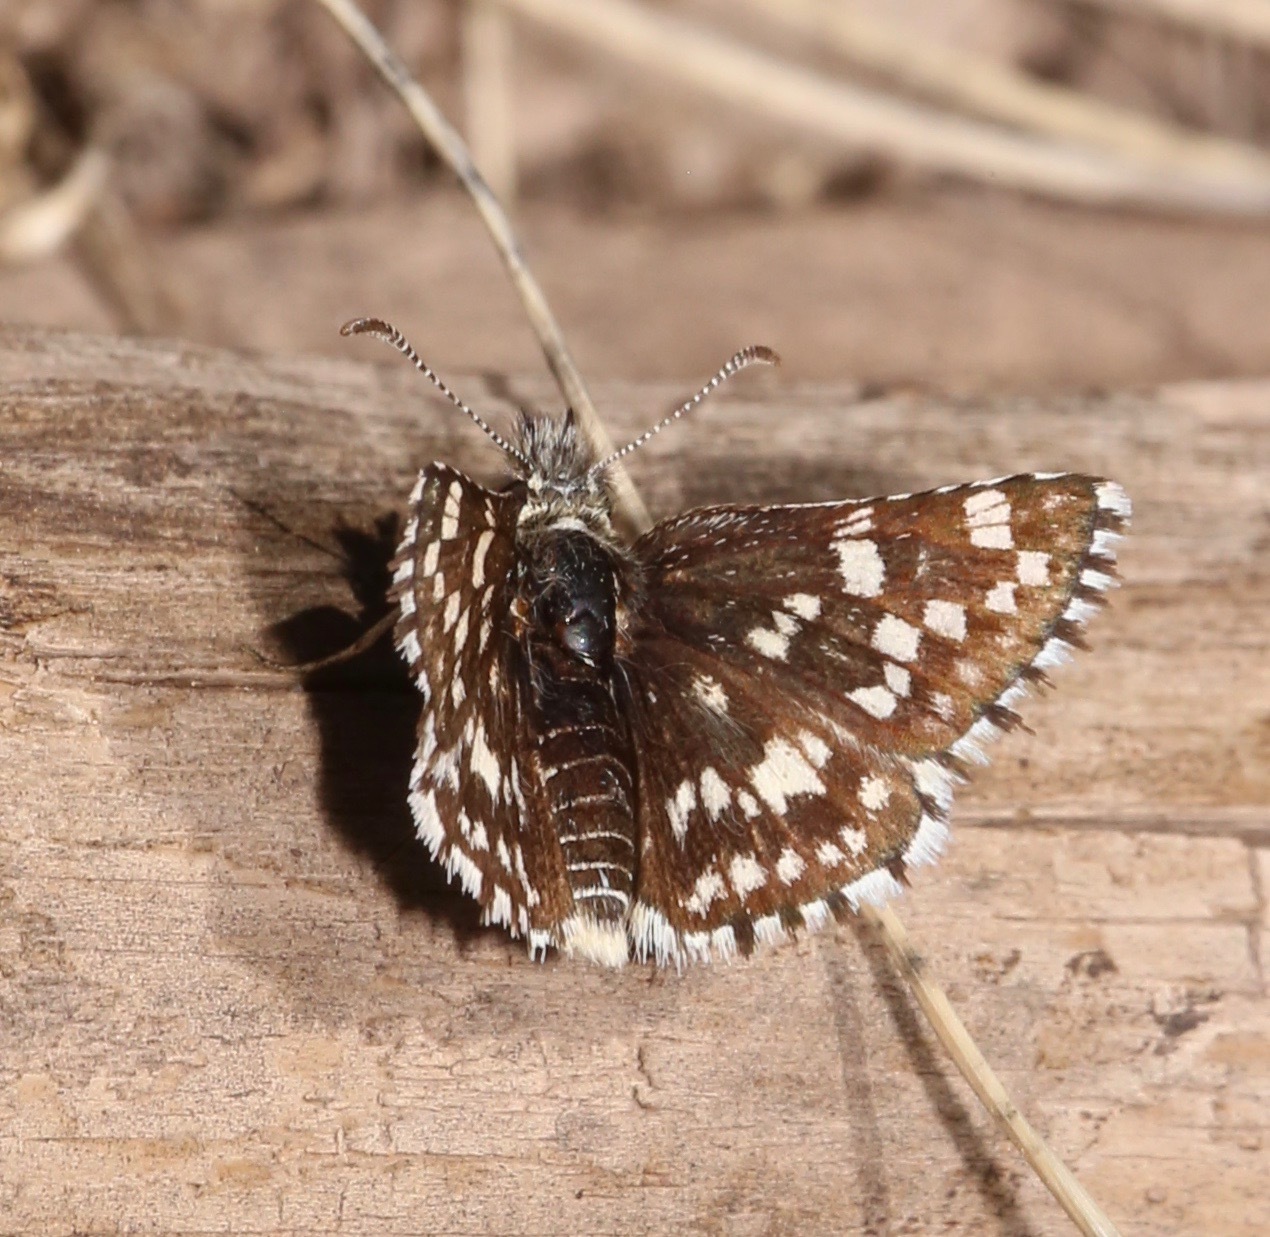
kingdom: Animalia
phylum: Arthropoda
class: Insecta
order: Lepidoptera
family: Hesperiidae
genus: Pyrgus
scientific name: Pyrgus ruralis
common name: Two-banded checkered-skipper
